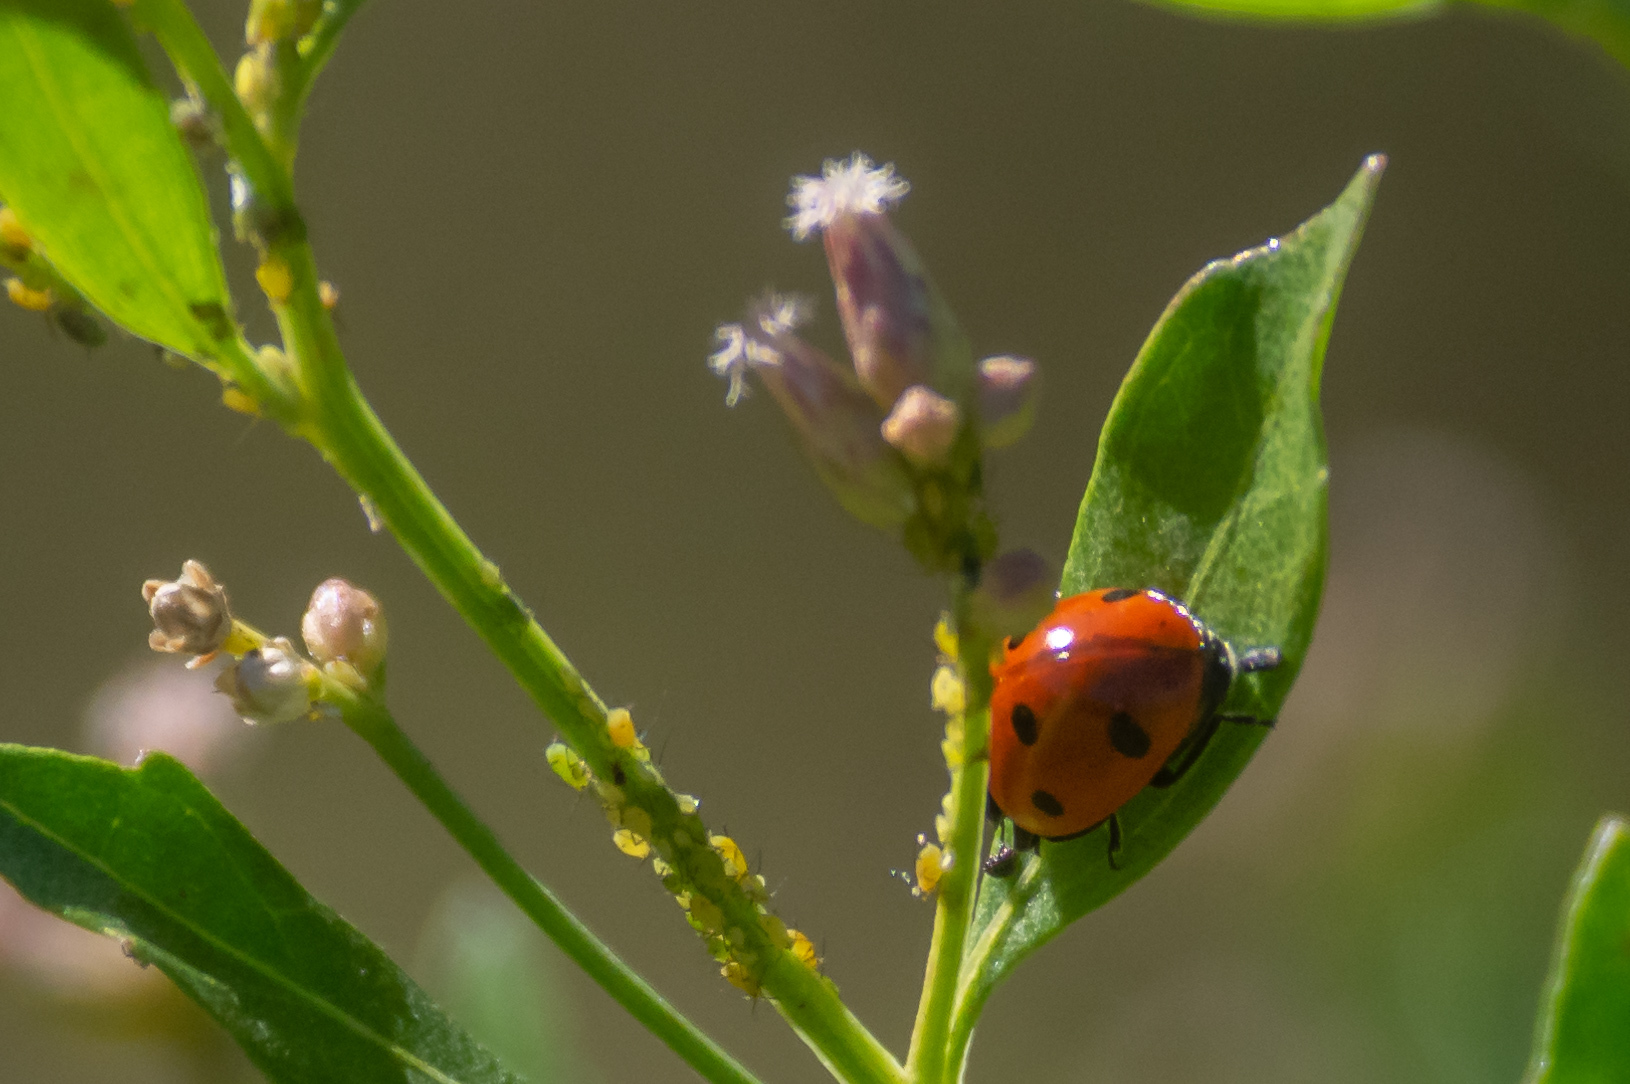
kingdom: Animalia
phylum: Arthropoda
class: Insecta
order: Coleoptera
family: Coccinellidae
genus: Coccinella
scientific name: Coccinella septempunctata
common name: Sevenspotted lady beetle
